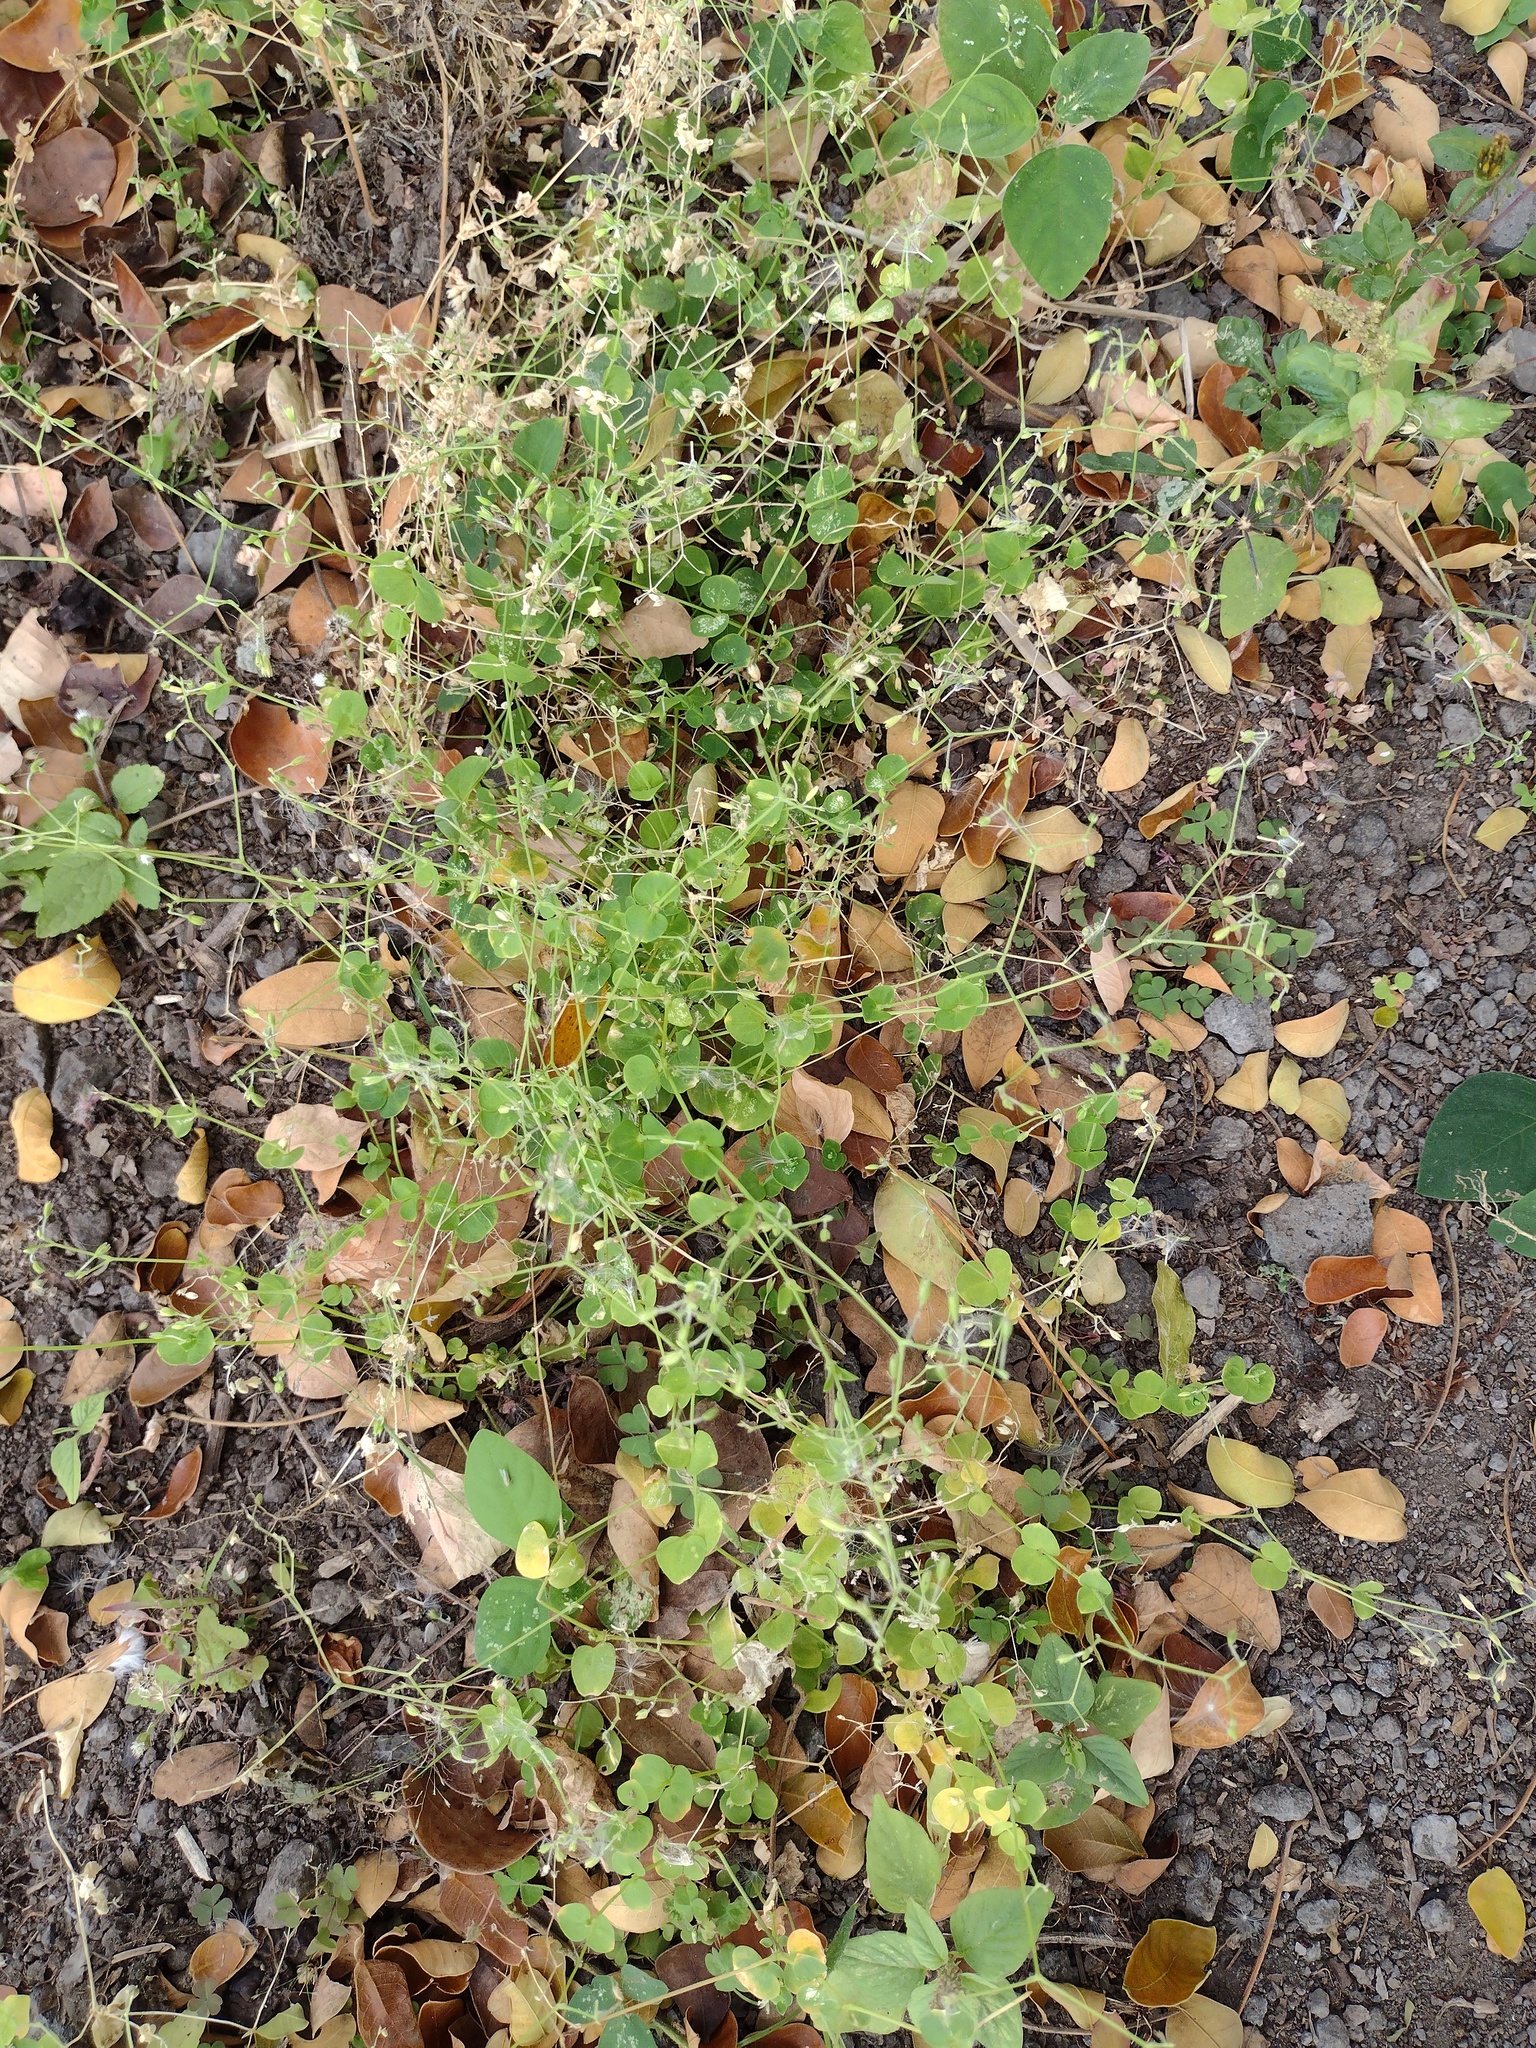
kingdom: Plantae
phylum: Tracheophyta
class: Magnoliopsida
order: Caryophyllales
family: Caryophyllaceae
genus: Drymaria
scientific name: Drymaria cordata
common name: Whitesnow
